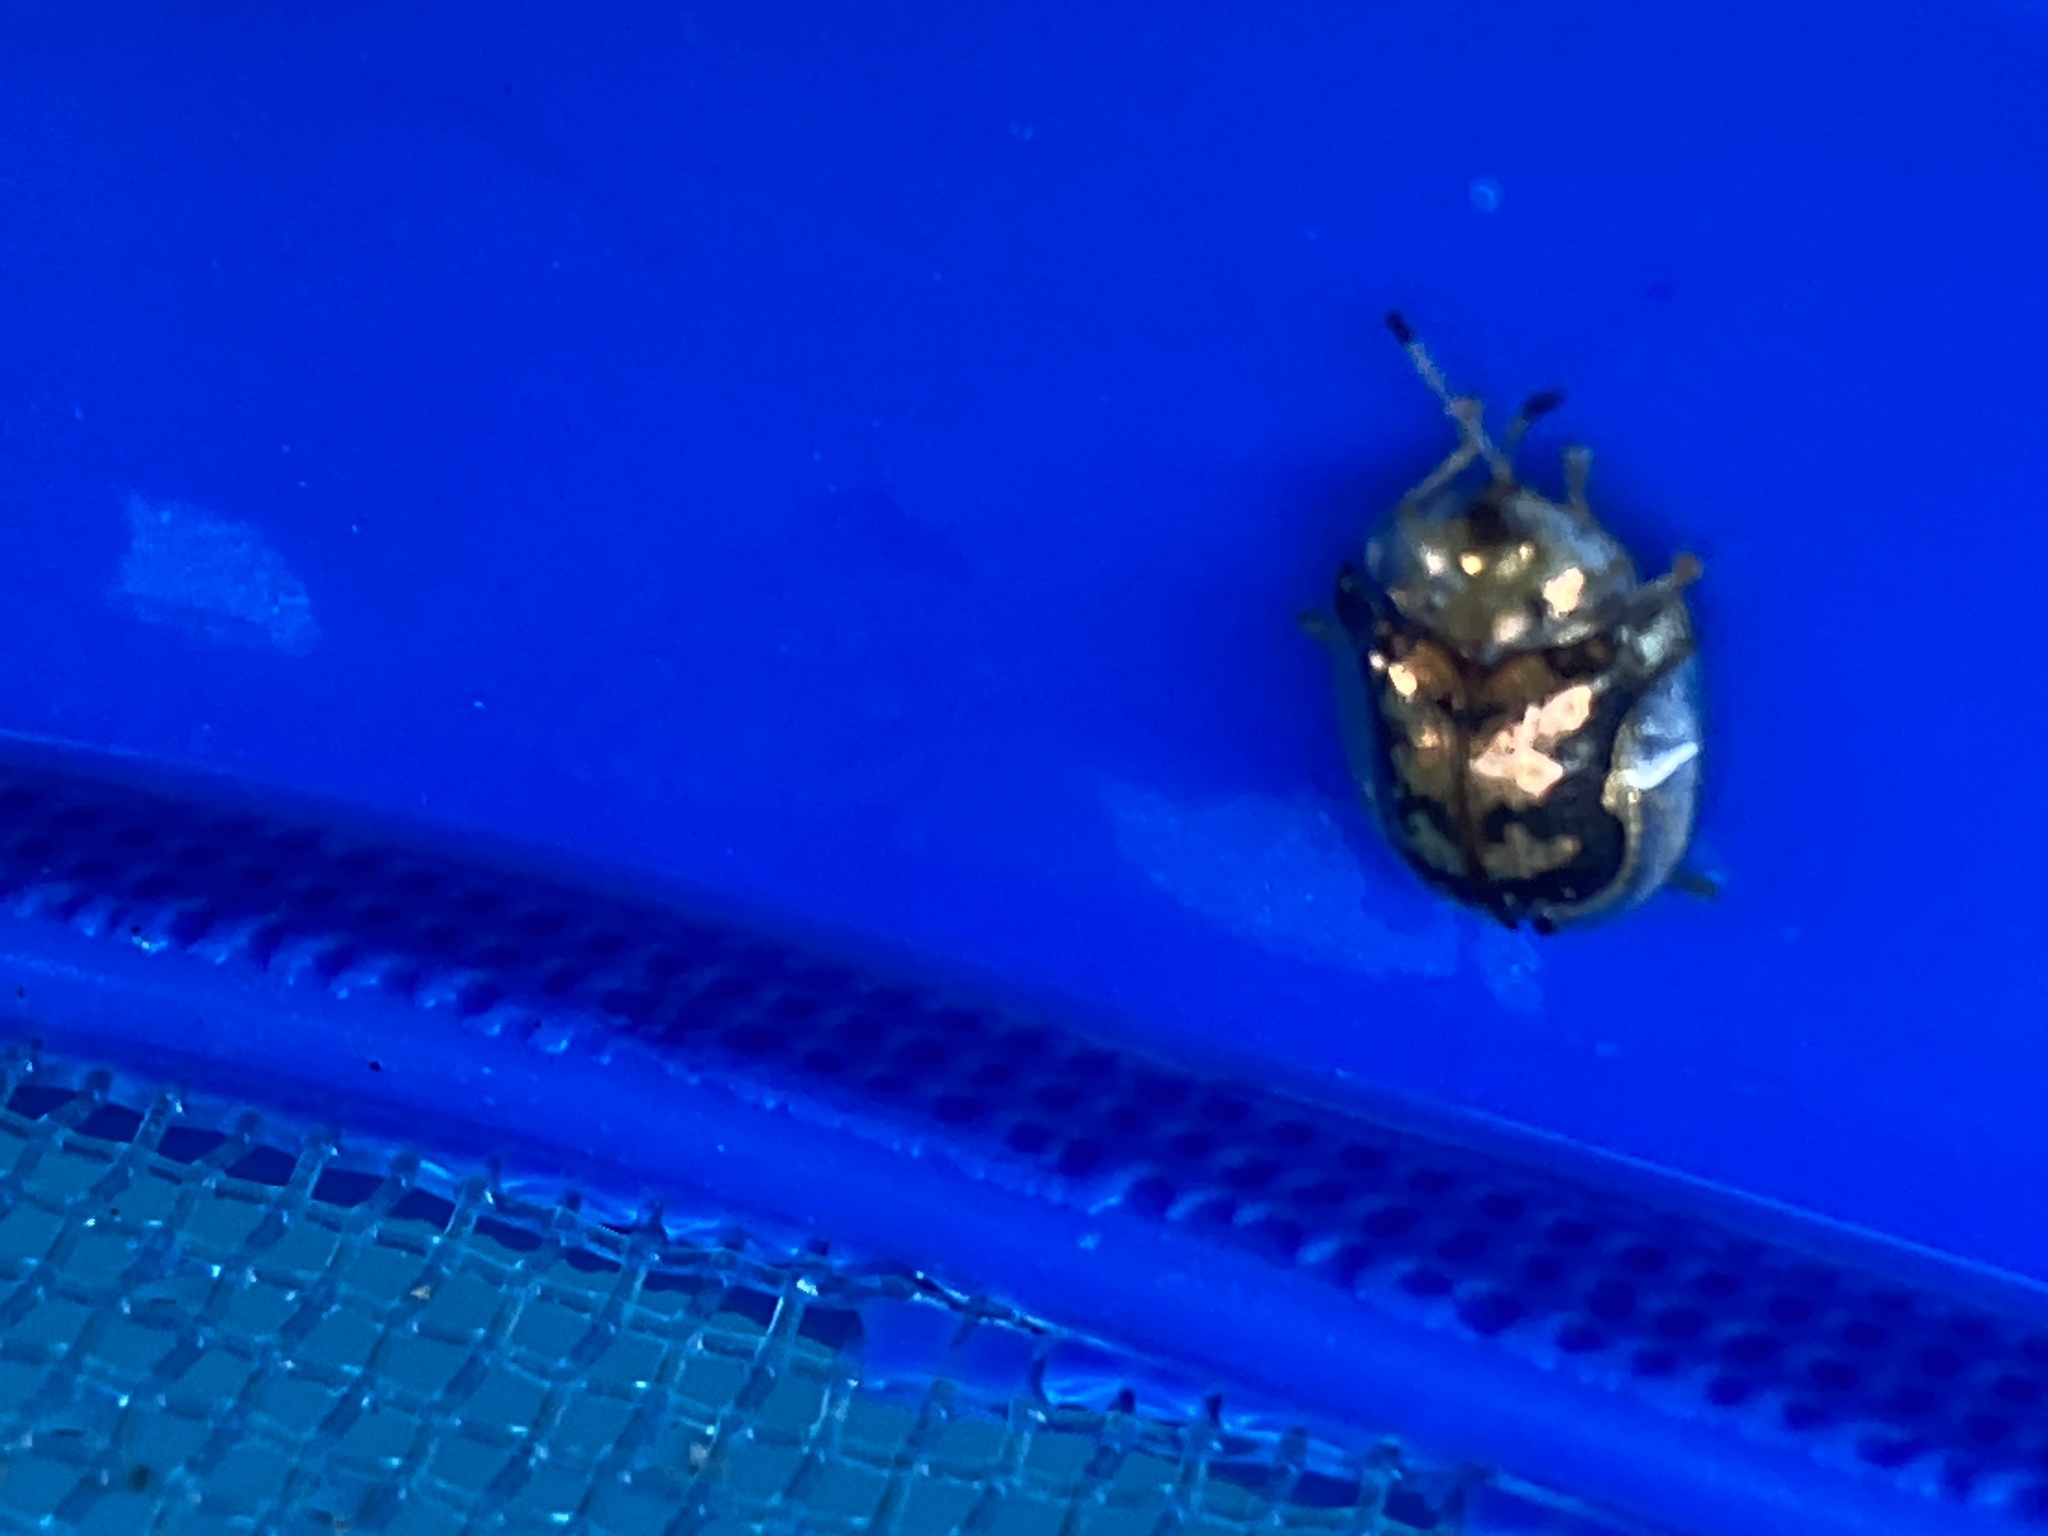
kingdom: Animalia
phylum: Arthropoda
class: Insecta
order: Coleoptera
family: Chrysomelidae
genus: Deloyala
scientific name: Deloyala guttata
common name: Mottled tortoise beetle
